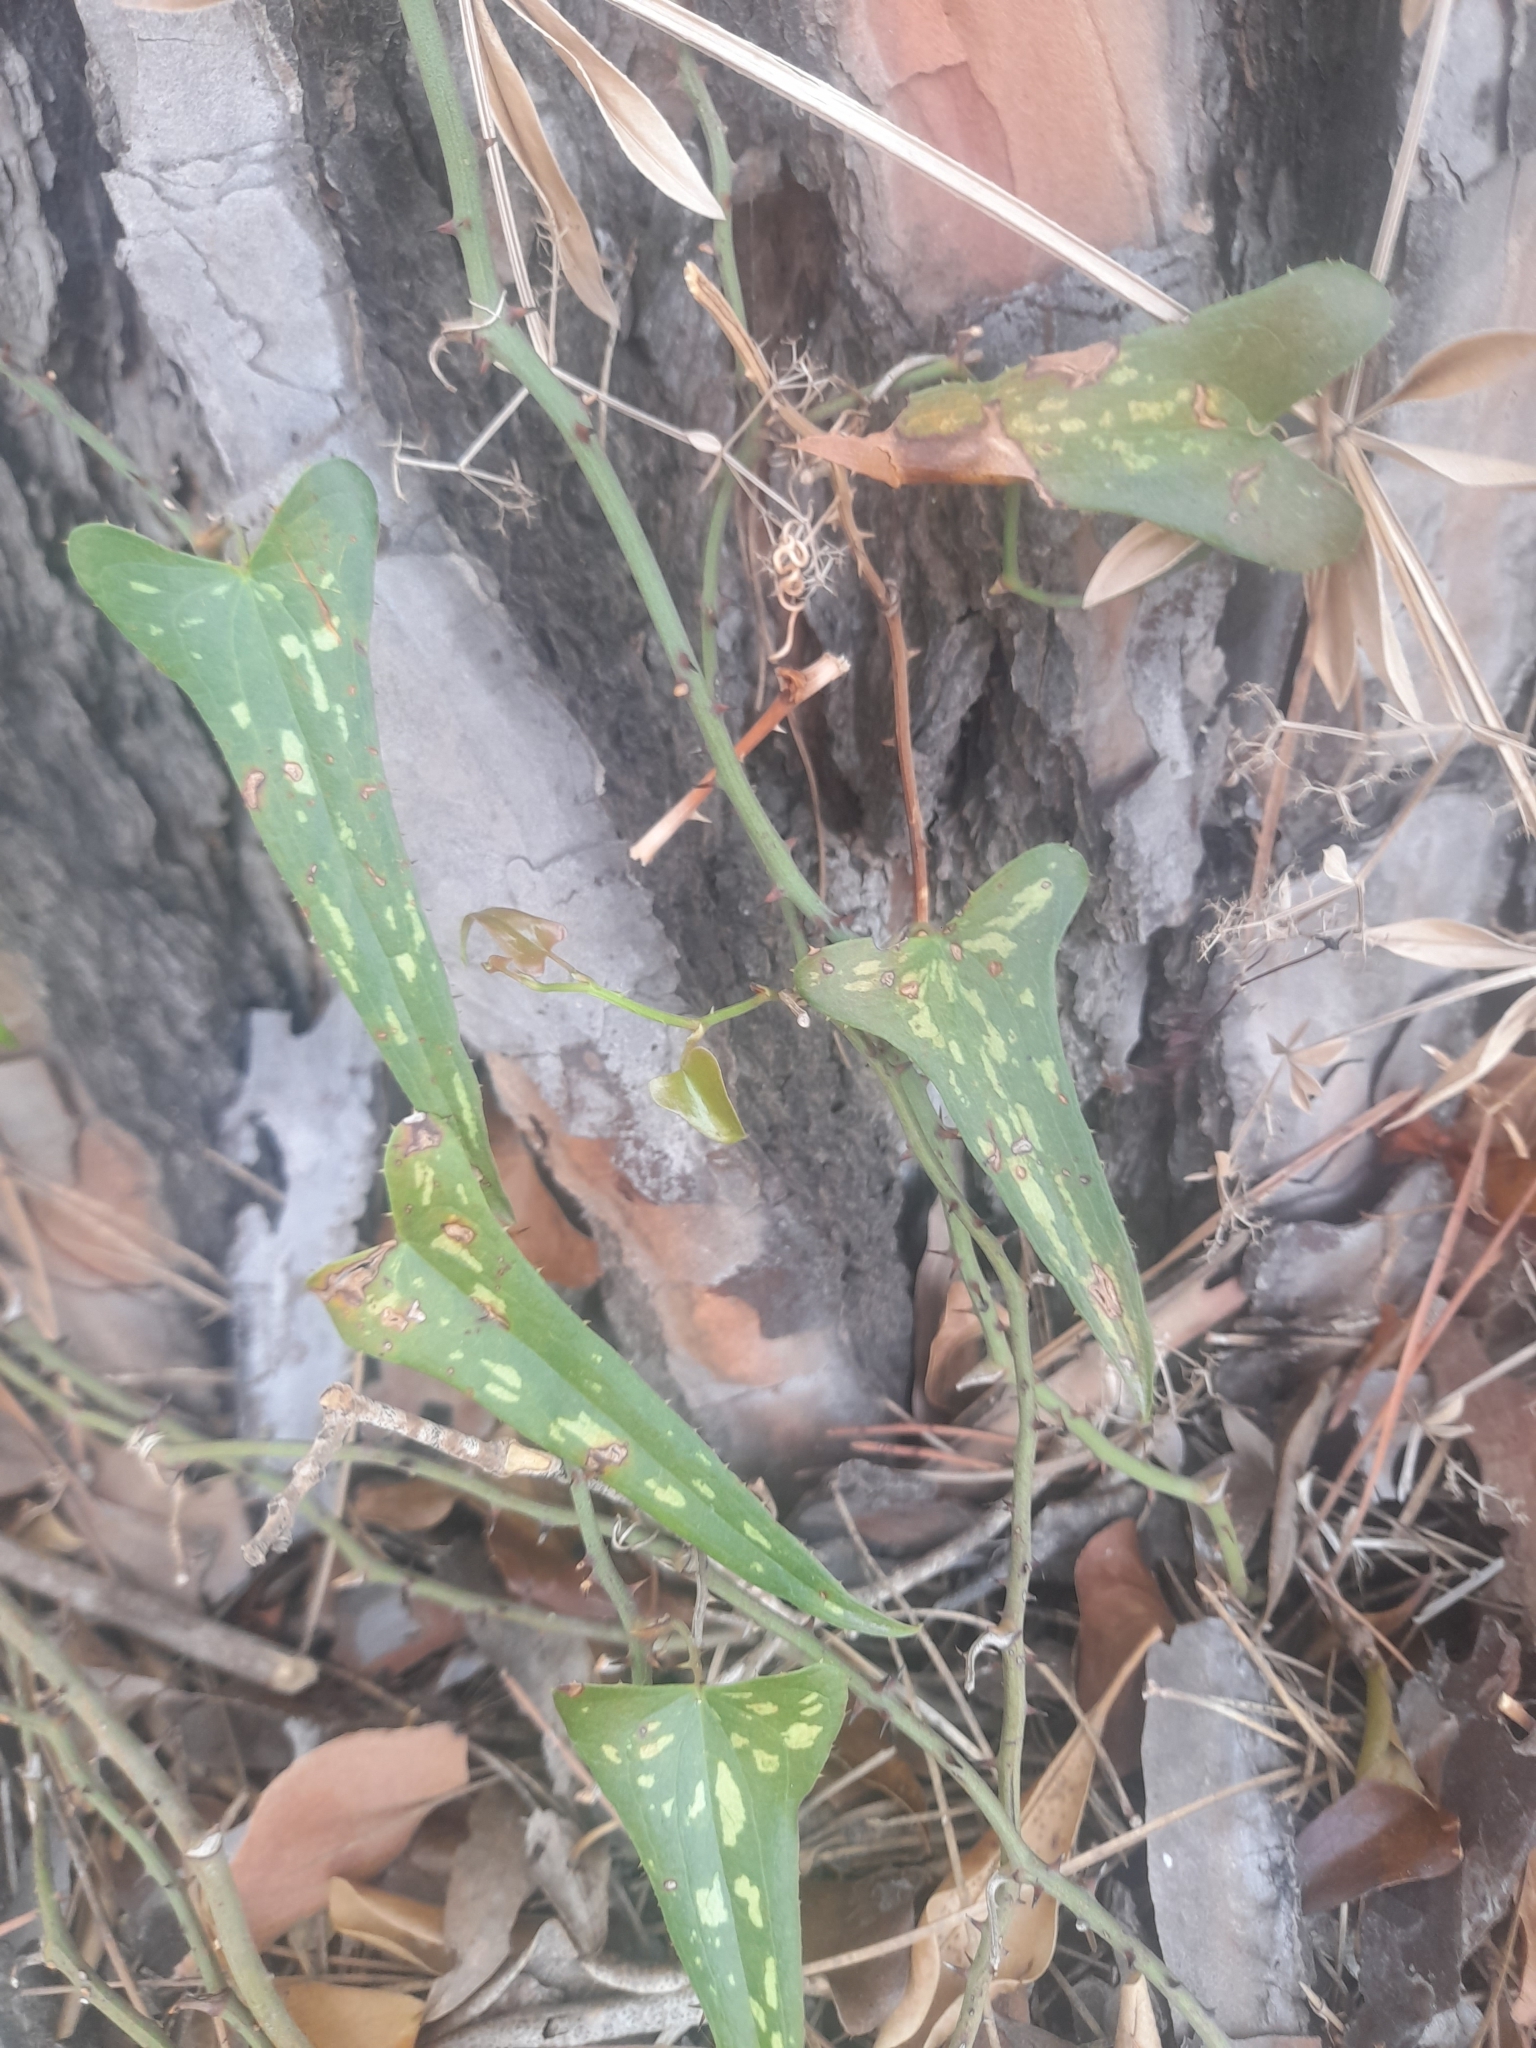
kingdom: Plantae
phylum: Tracheophyta
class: Liliopsida
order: Liliales
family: Smilacaceae
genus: Smilax
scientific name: Smilax aspera
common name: Common smilax
